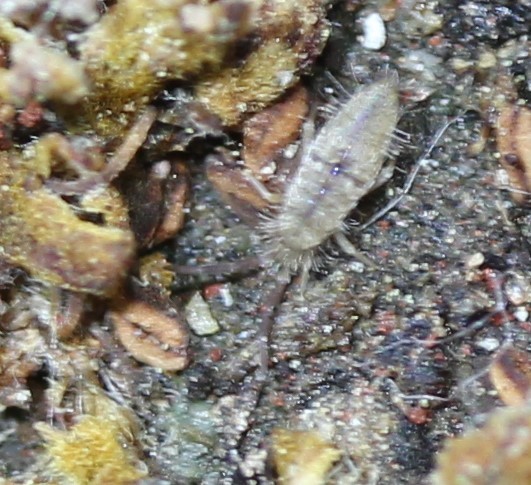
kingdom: Animalia
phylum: Arthropoda
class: Collembola
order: Entomobryomorpha
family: Entomobryidae
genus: Entomobrya
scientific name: Entomobrya unostrigata
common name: Springtail
